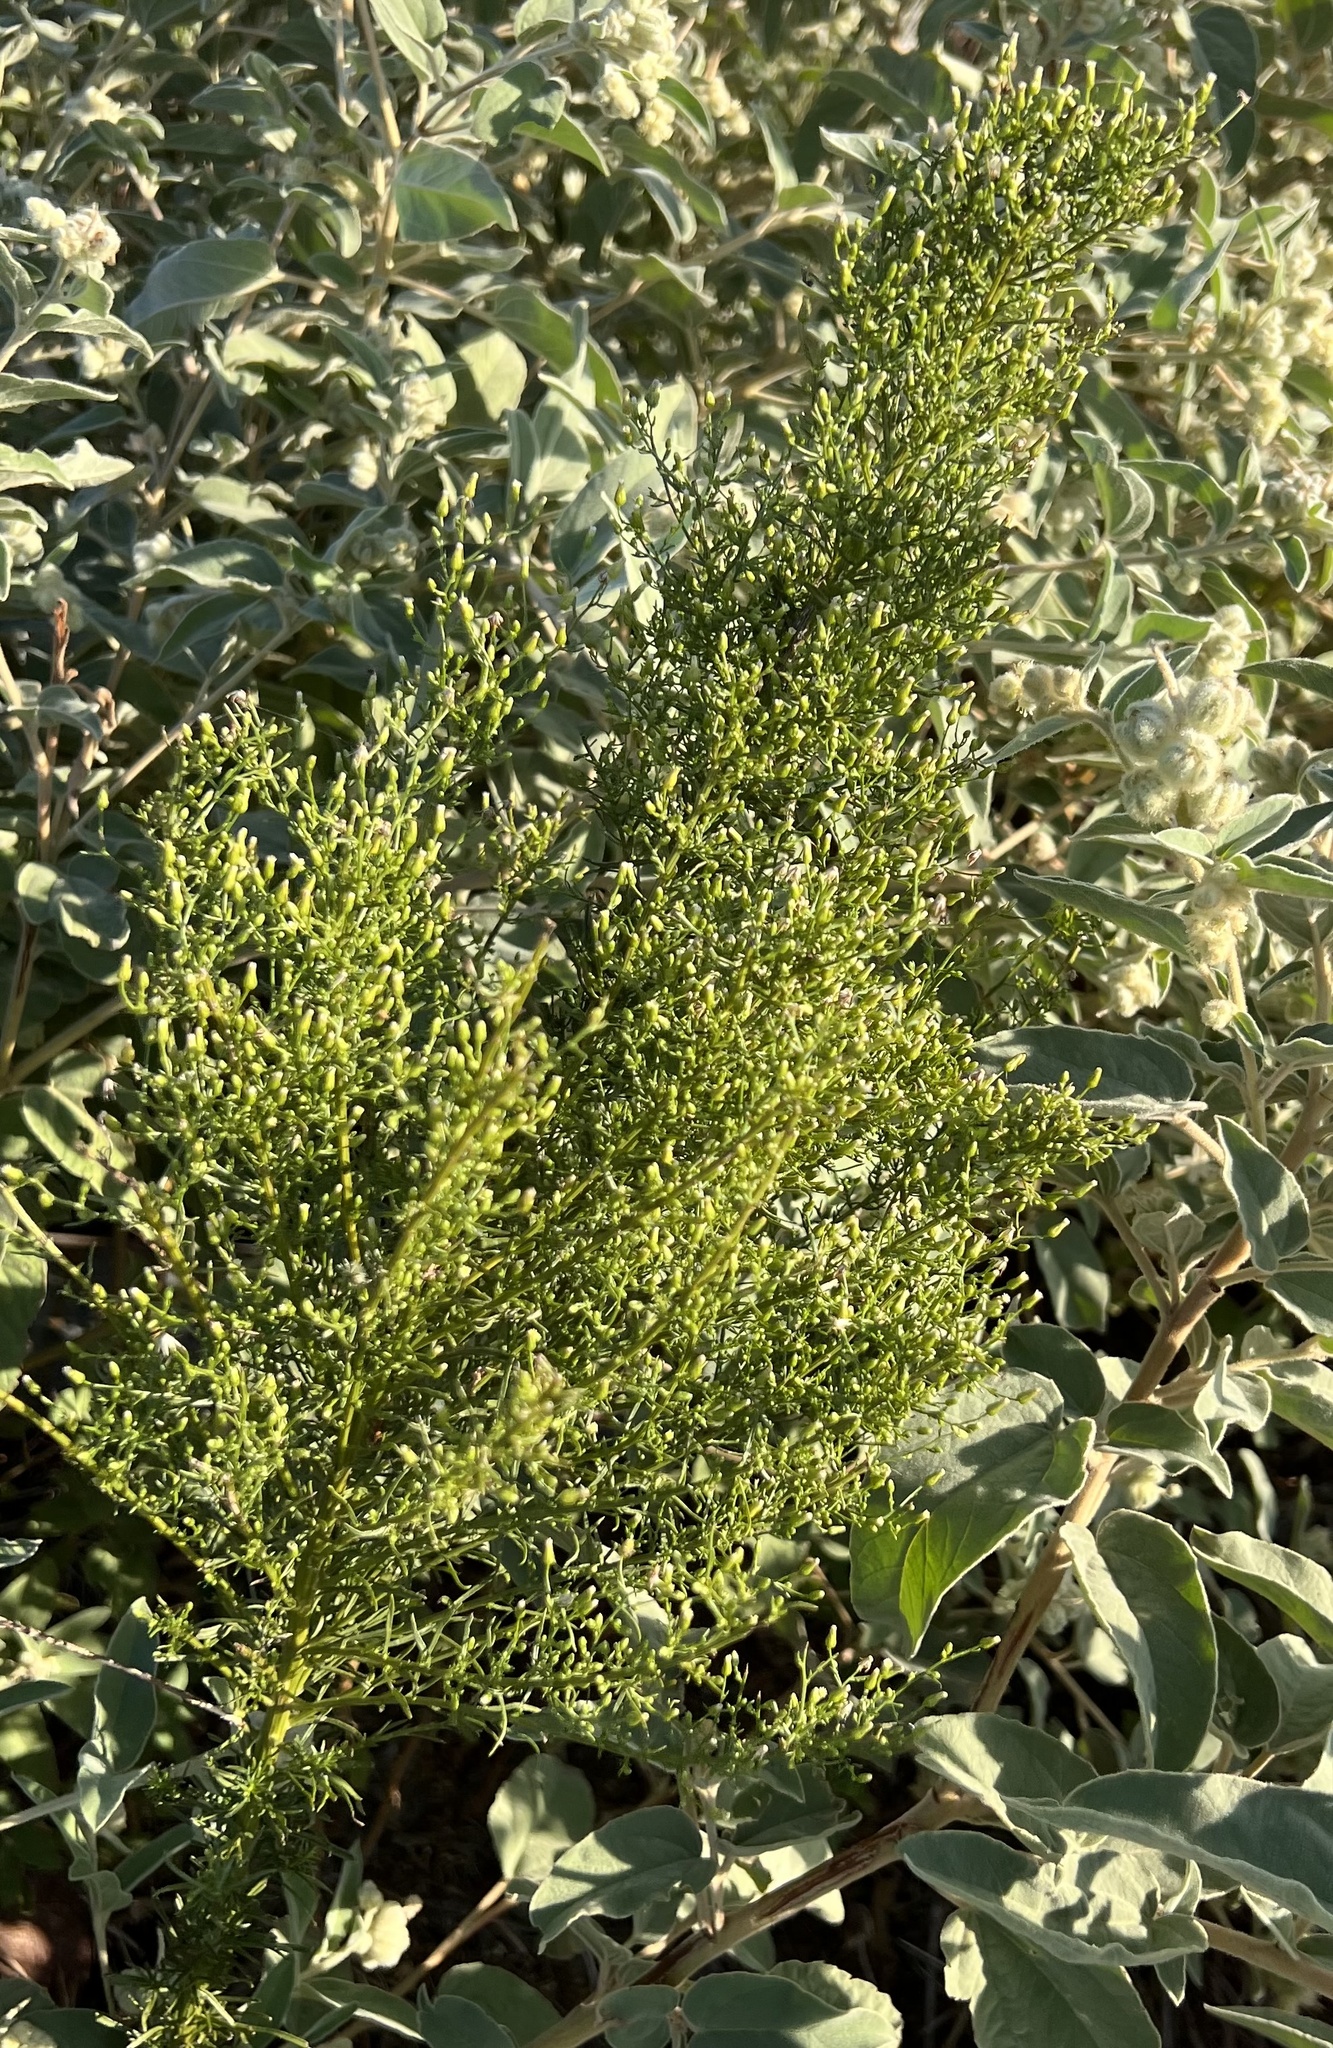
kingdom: Plantae
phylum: Tracheophyta
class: Magnoliopsida
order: Asterales
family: Asteraceae
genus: Erigeron
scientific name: Erigeron canadensis
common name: Canadian fleabane
